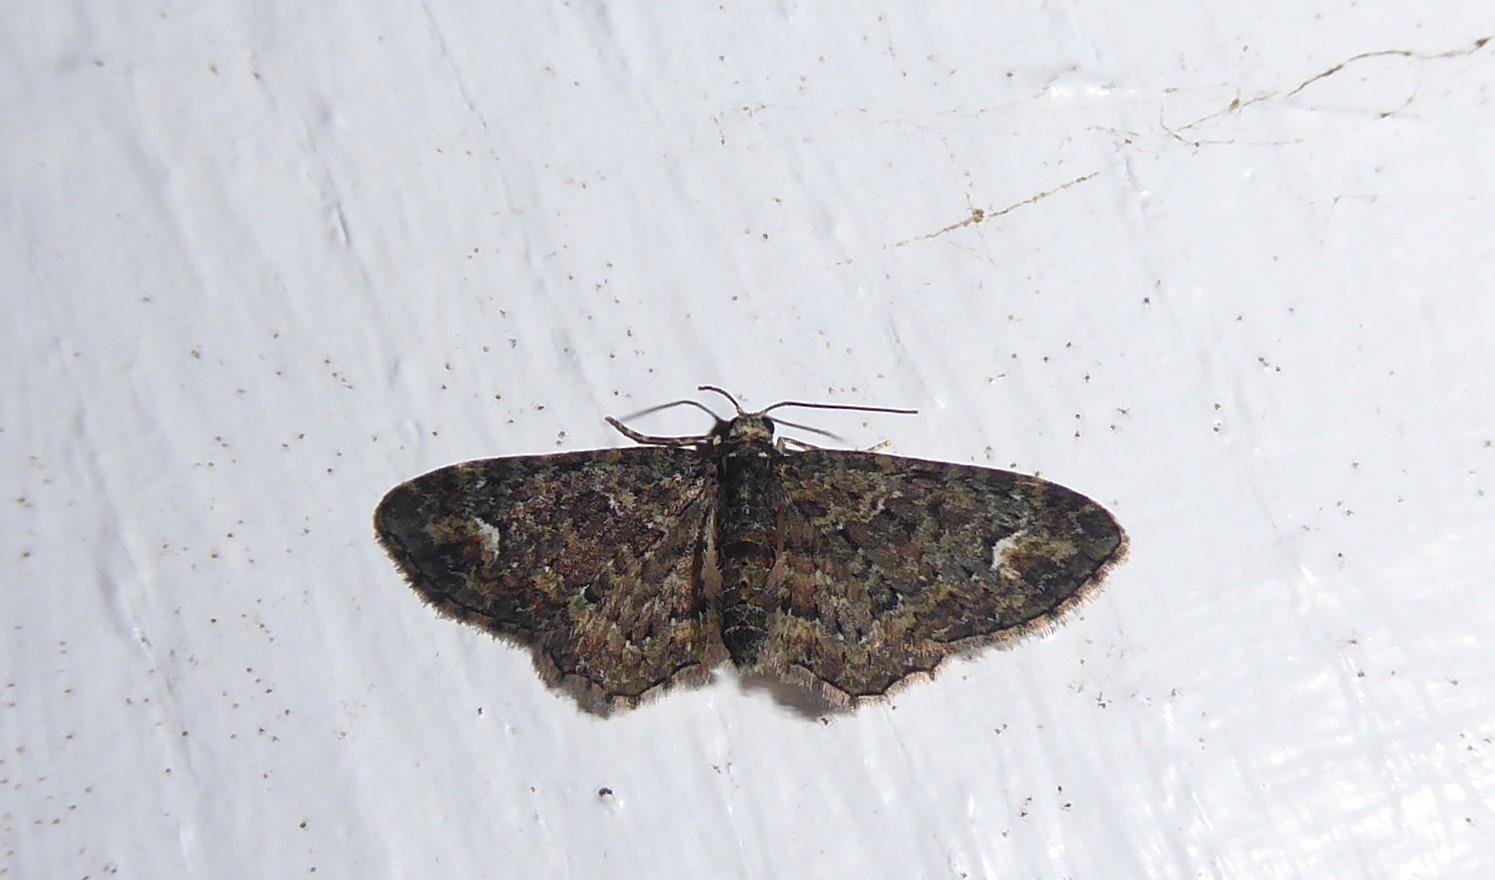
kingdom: Animalia
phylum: Arthropoda
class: Insecta
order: Lepidoptera
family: Geometridae
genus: Pasiphilodes
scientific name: Pasiphilodes testulata
